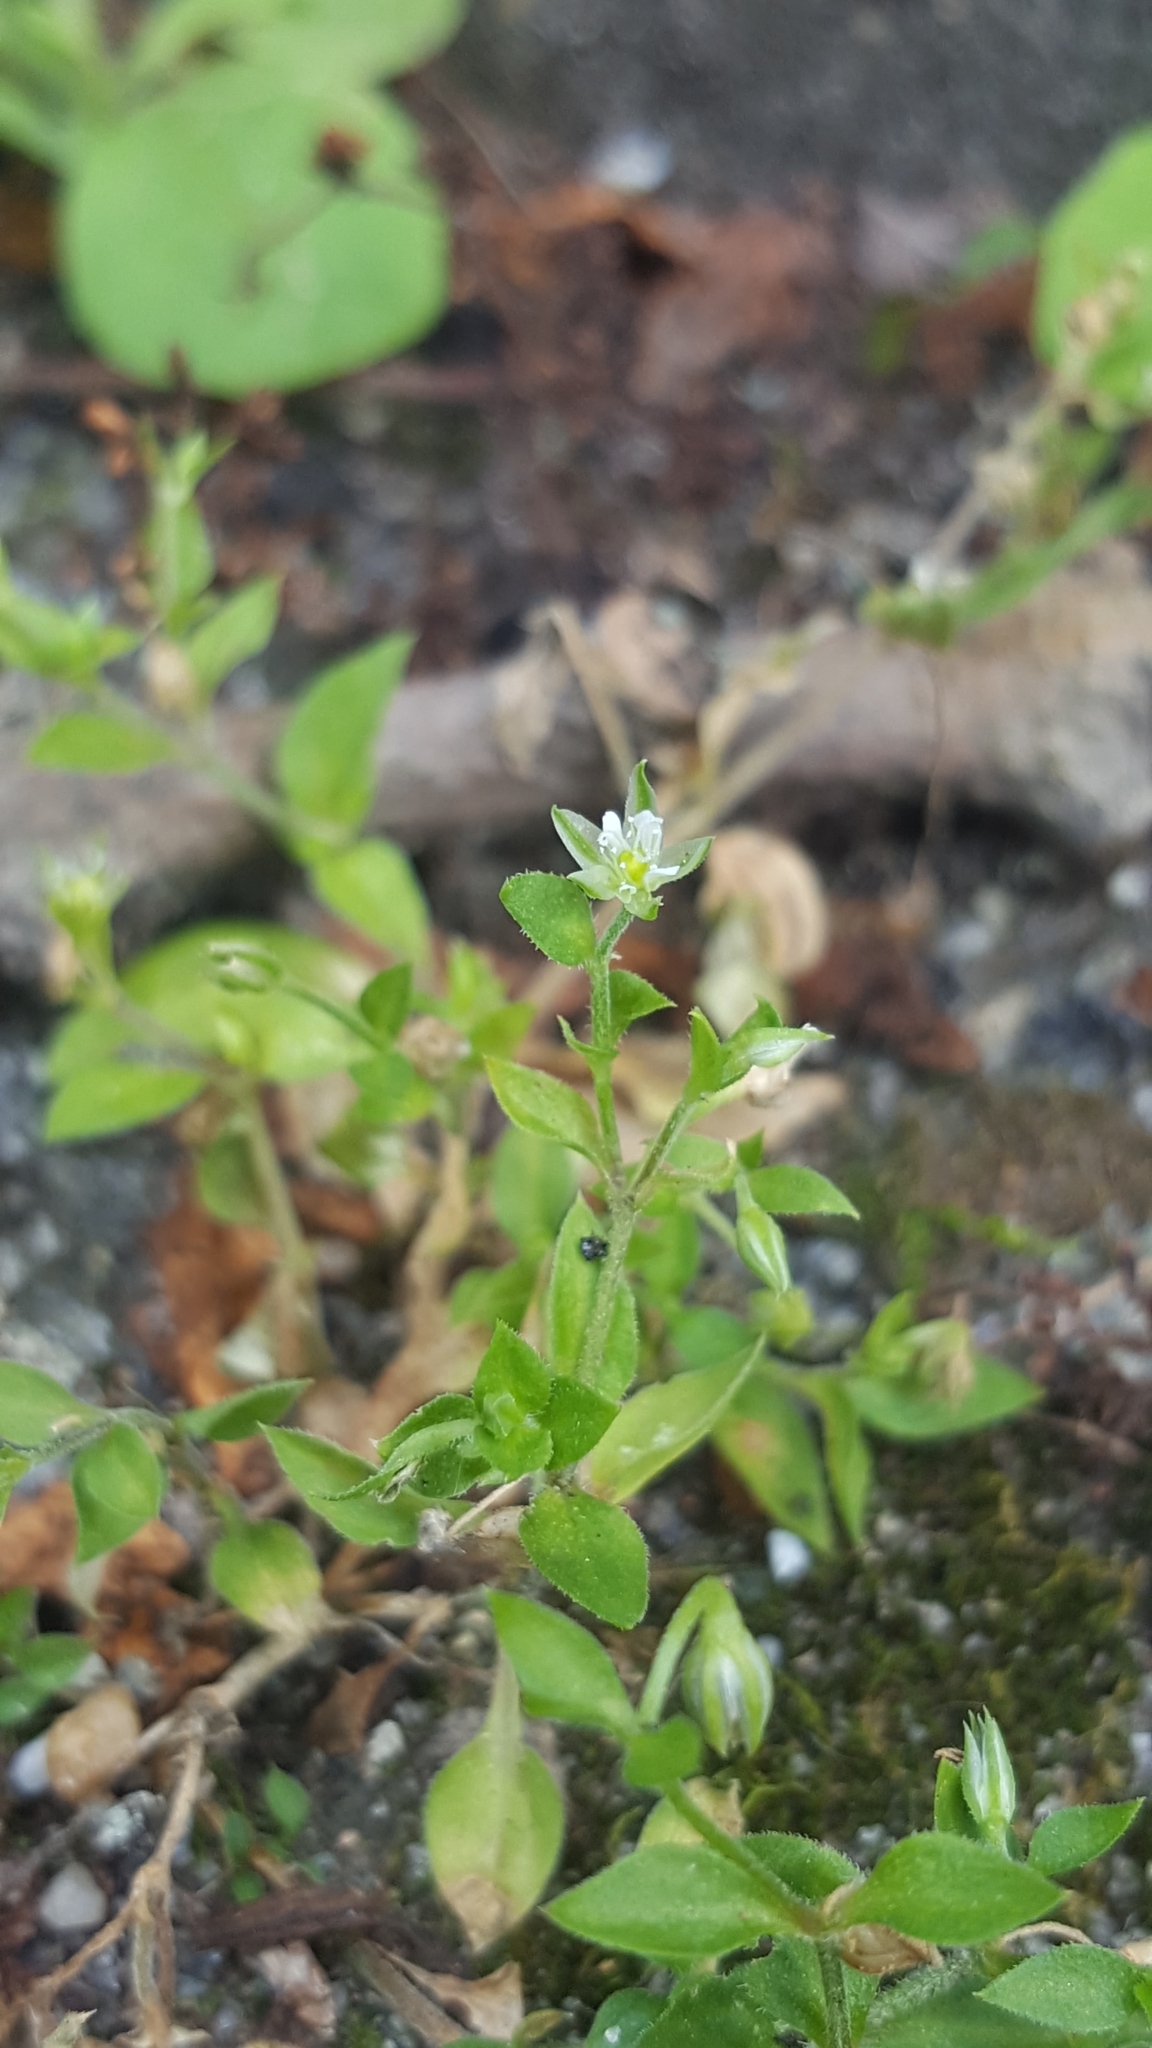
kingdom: Plantae
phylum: Tracheophyta
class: Magnoliopsida
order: Caryophyllales
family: Caryophyllaceae
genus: Arenaria
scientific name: Arenaria serpyllifolia
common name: Thyme-leaved sandwort
